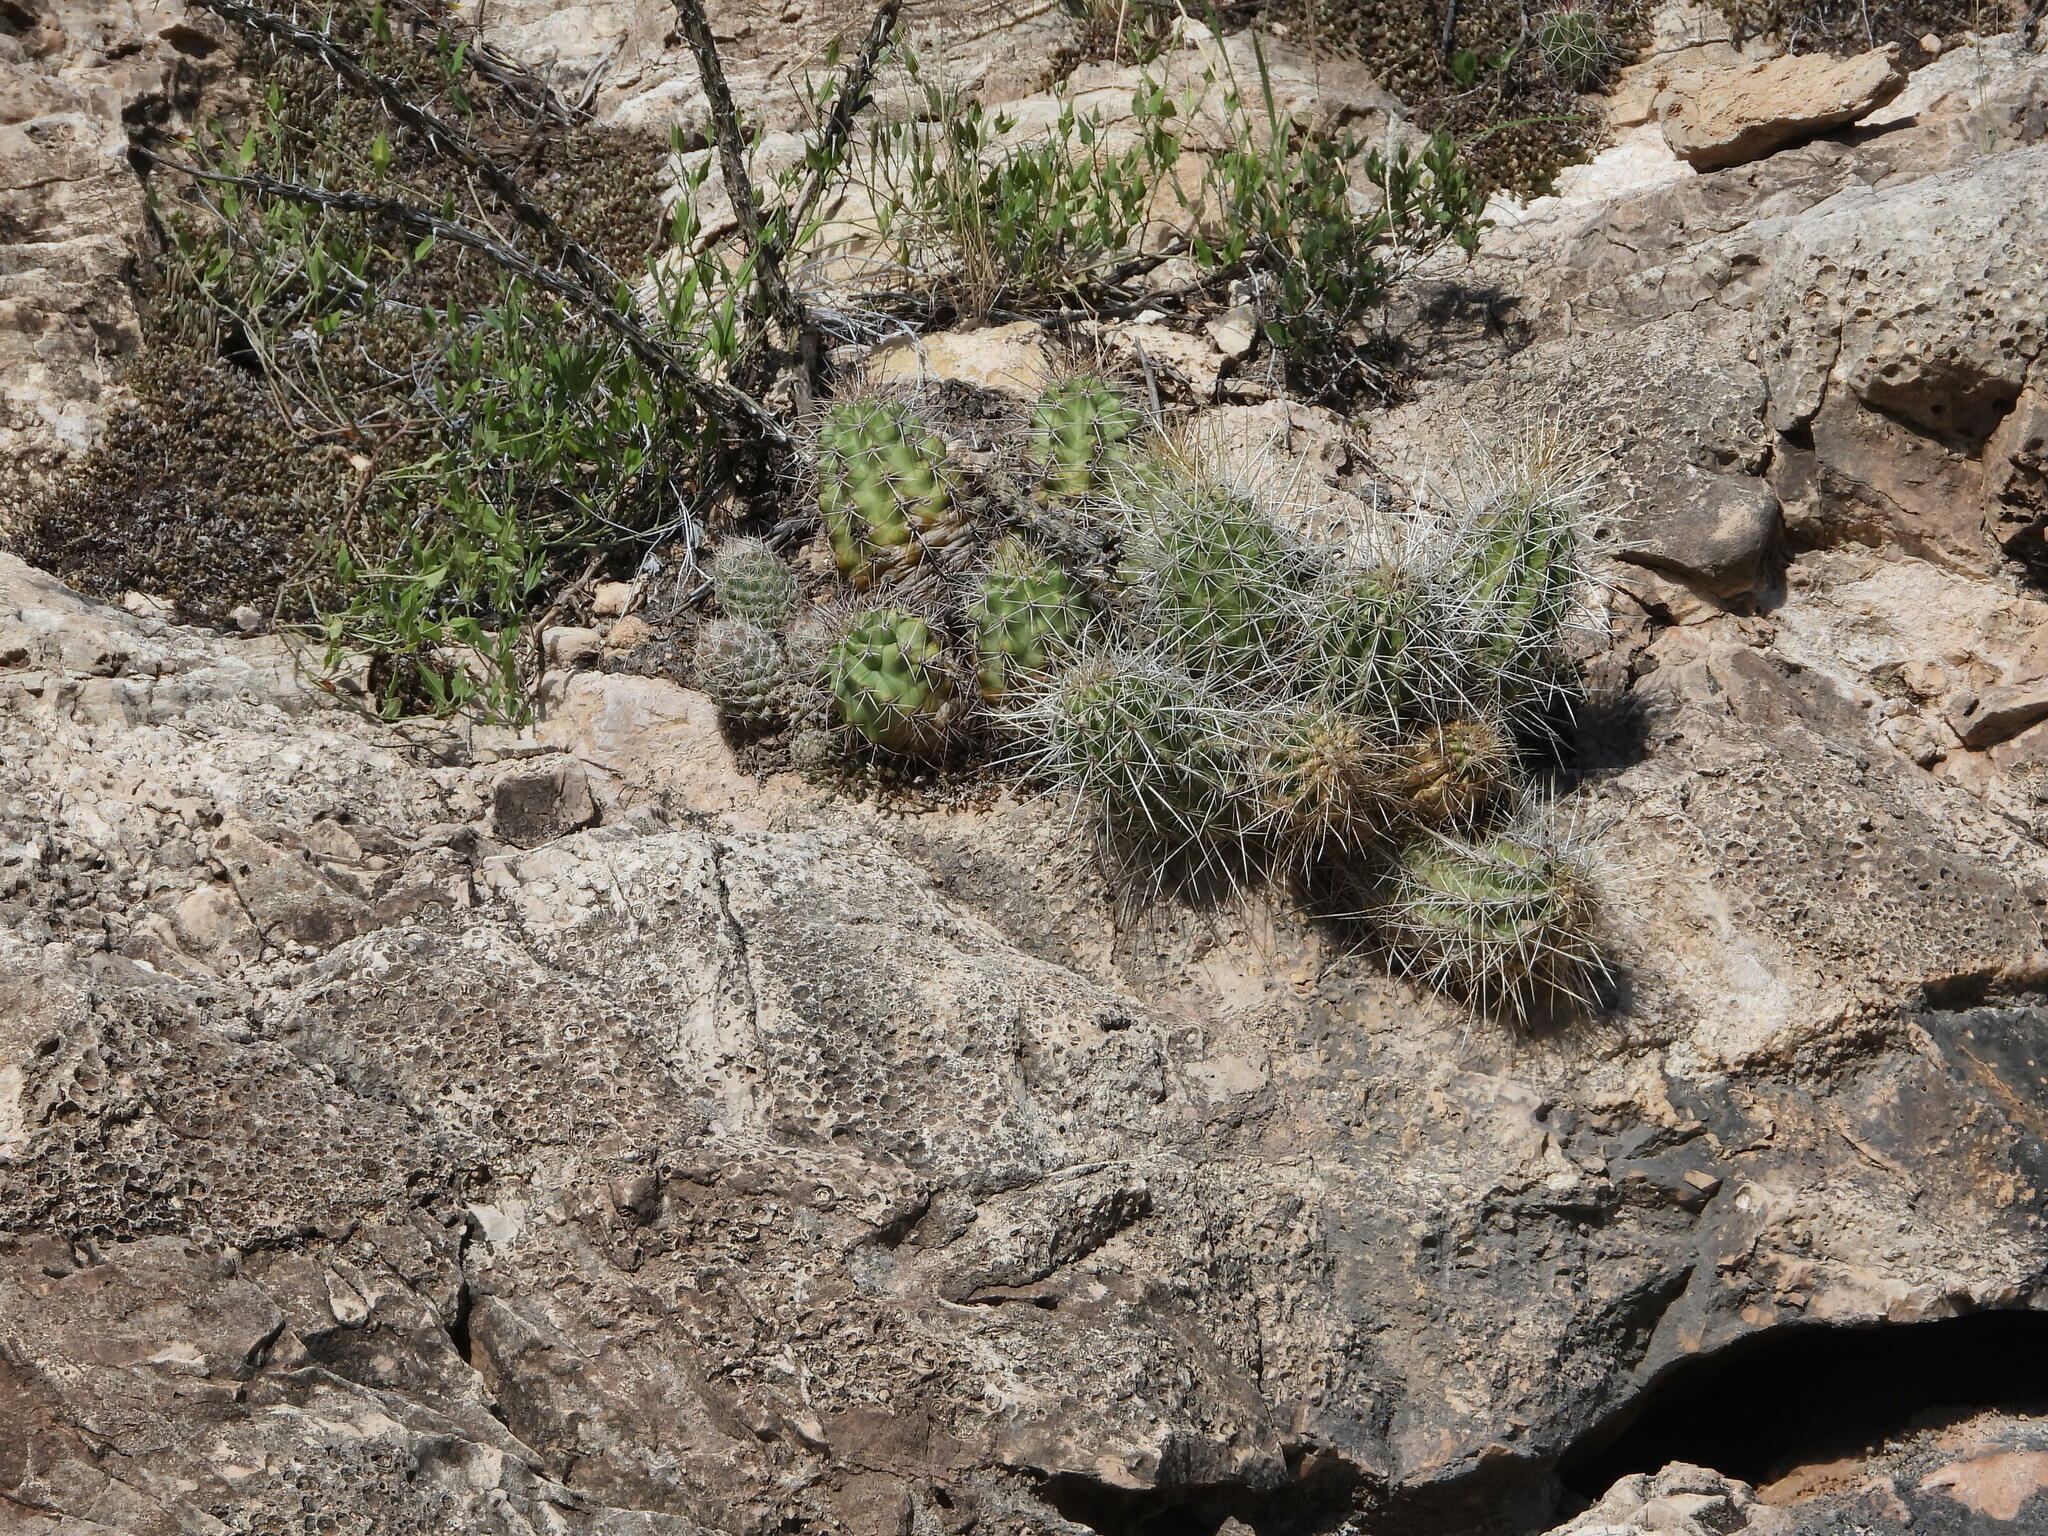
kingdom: Plantae
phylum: Tracheophyta
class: Magnoliopsida
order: Caryophyllales
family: Cactaceae
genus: Pelecyphora
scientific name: Pelecyphora tuberculosa
